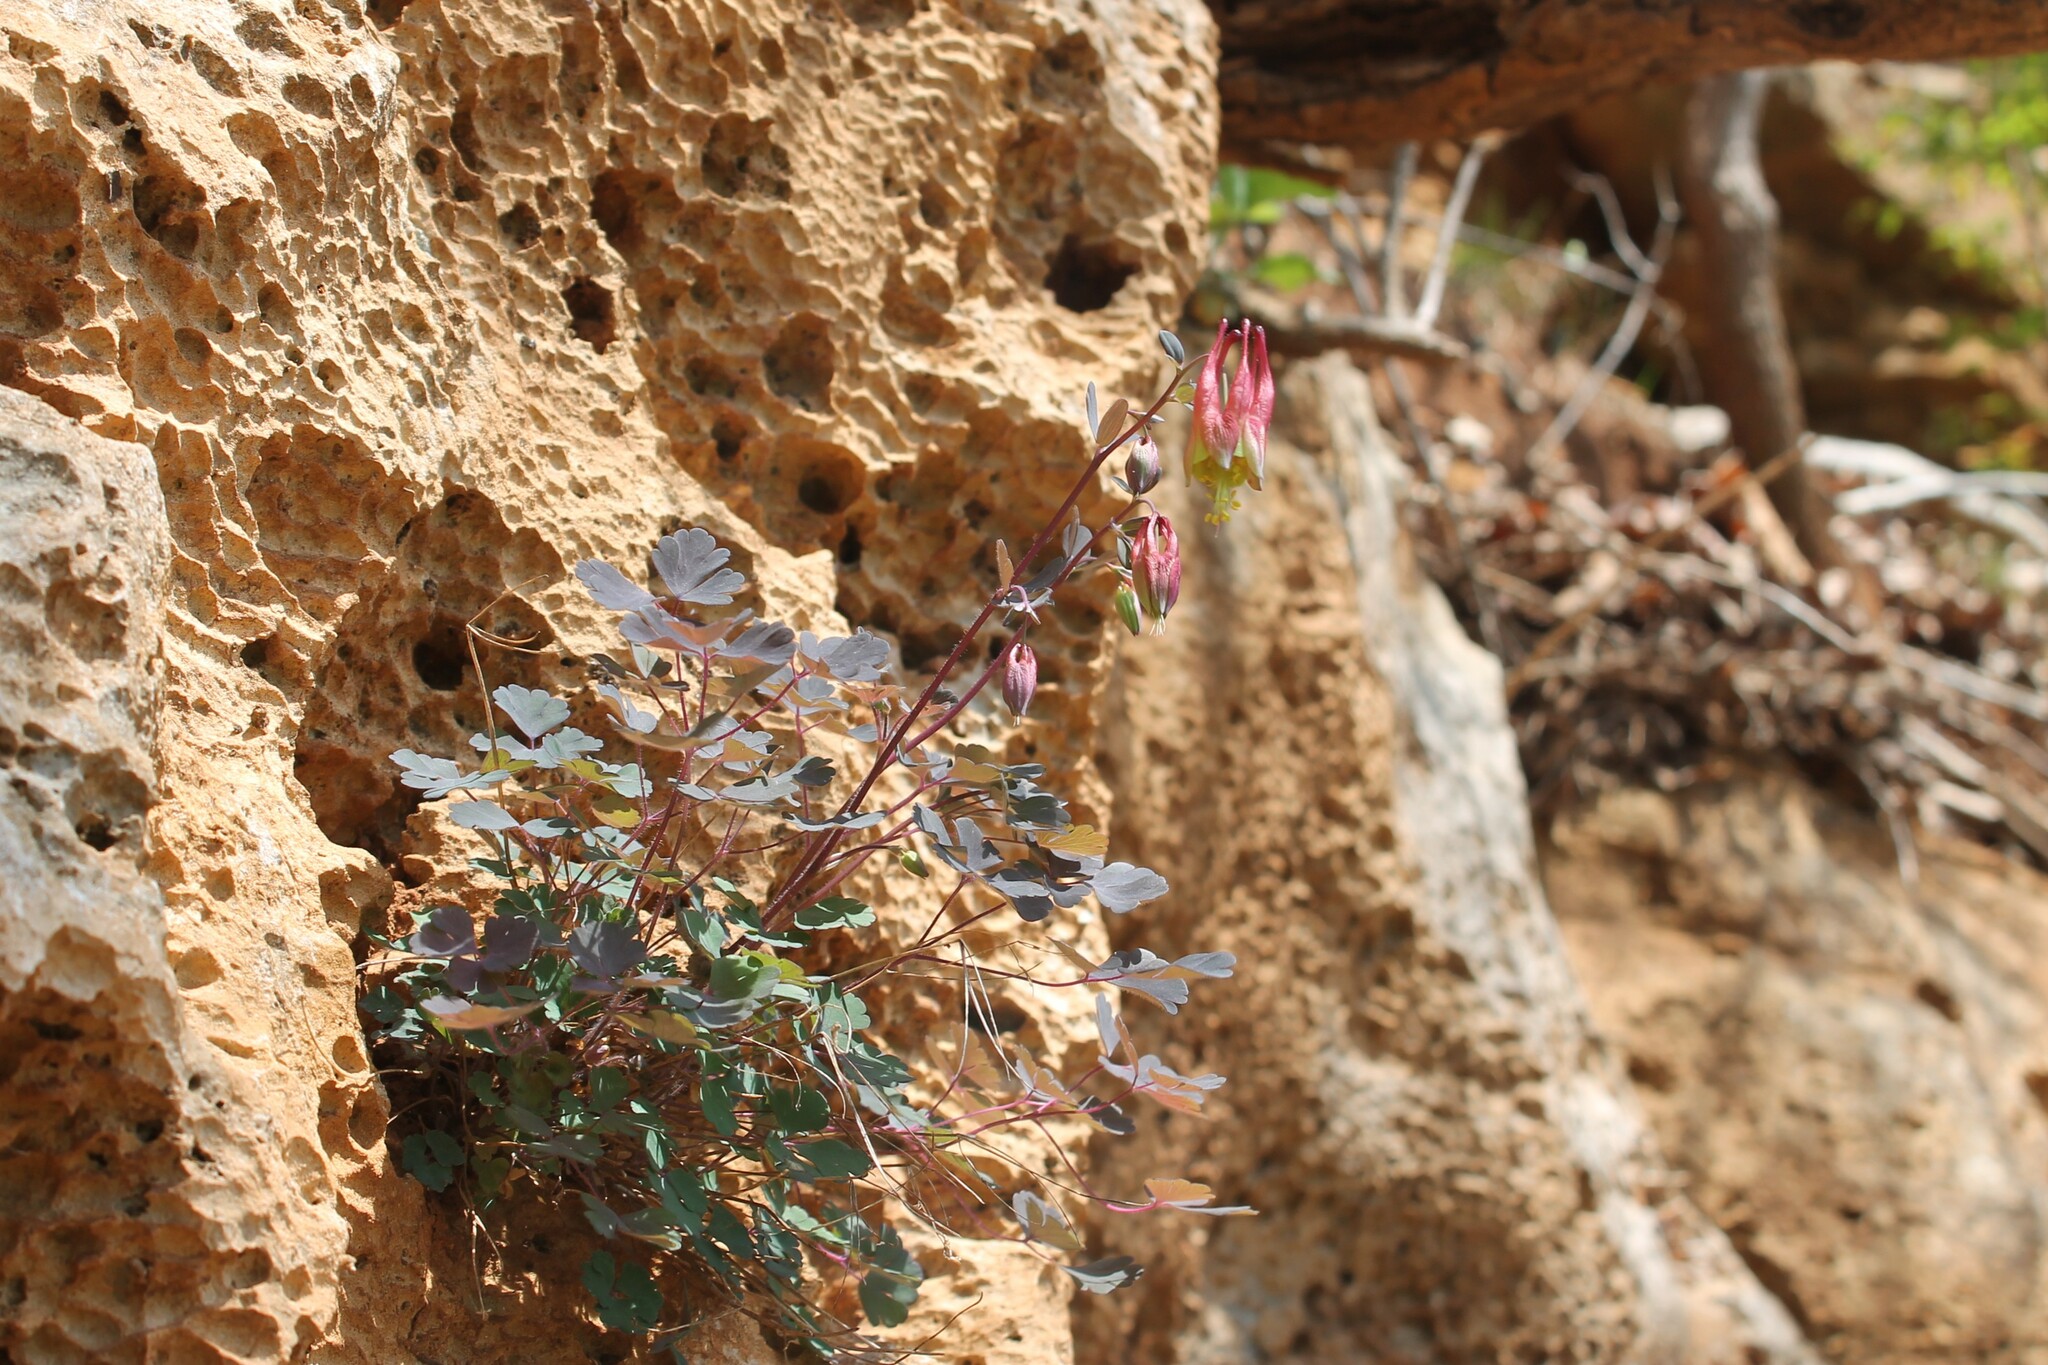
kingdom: Plantae
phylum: Tracheophyta
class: Magnoliopsida
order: Ranunculales
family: Ranunculaceae
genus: Aquilegia
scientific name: Aquilegia canadensis
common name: American columbine
